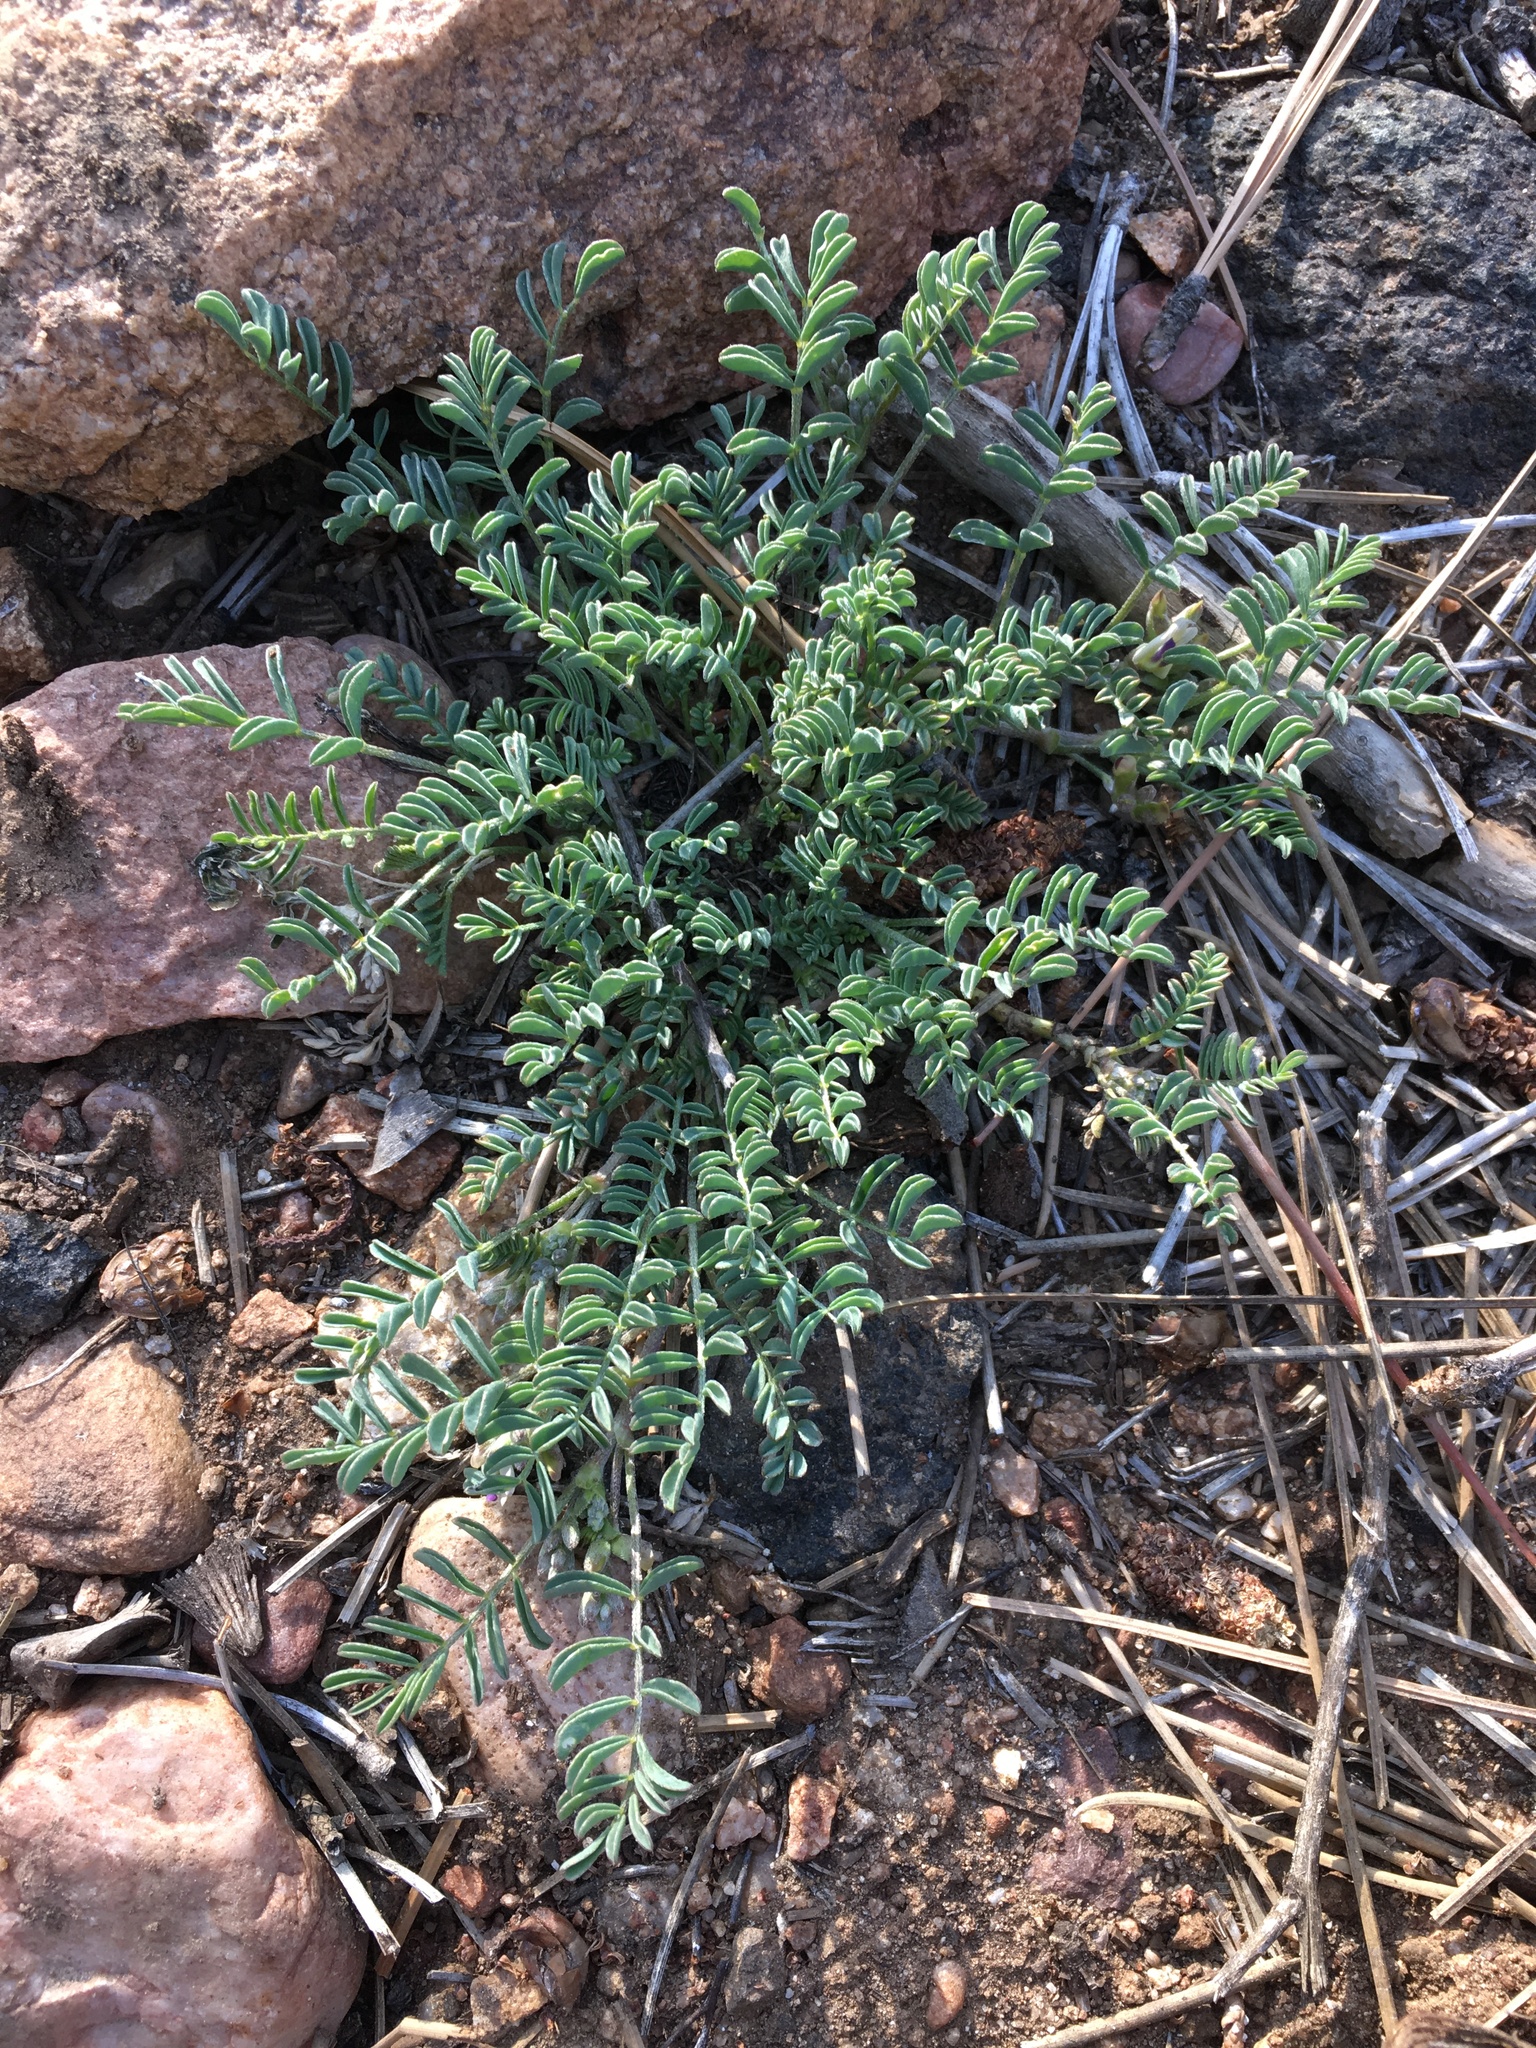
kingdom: Plantae
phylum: Tracheophyta
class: Magnoliopsida
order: Fabales
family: Fabaceae
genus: Astragalus
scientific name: Astragalus lentiginosus
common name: Freckled milkvetch
